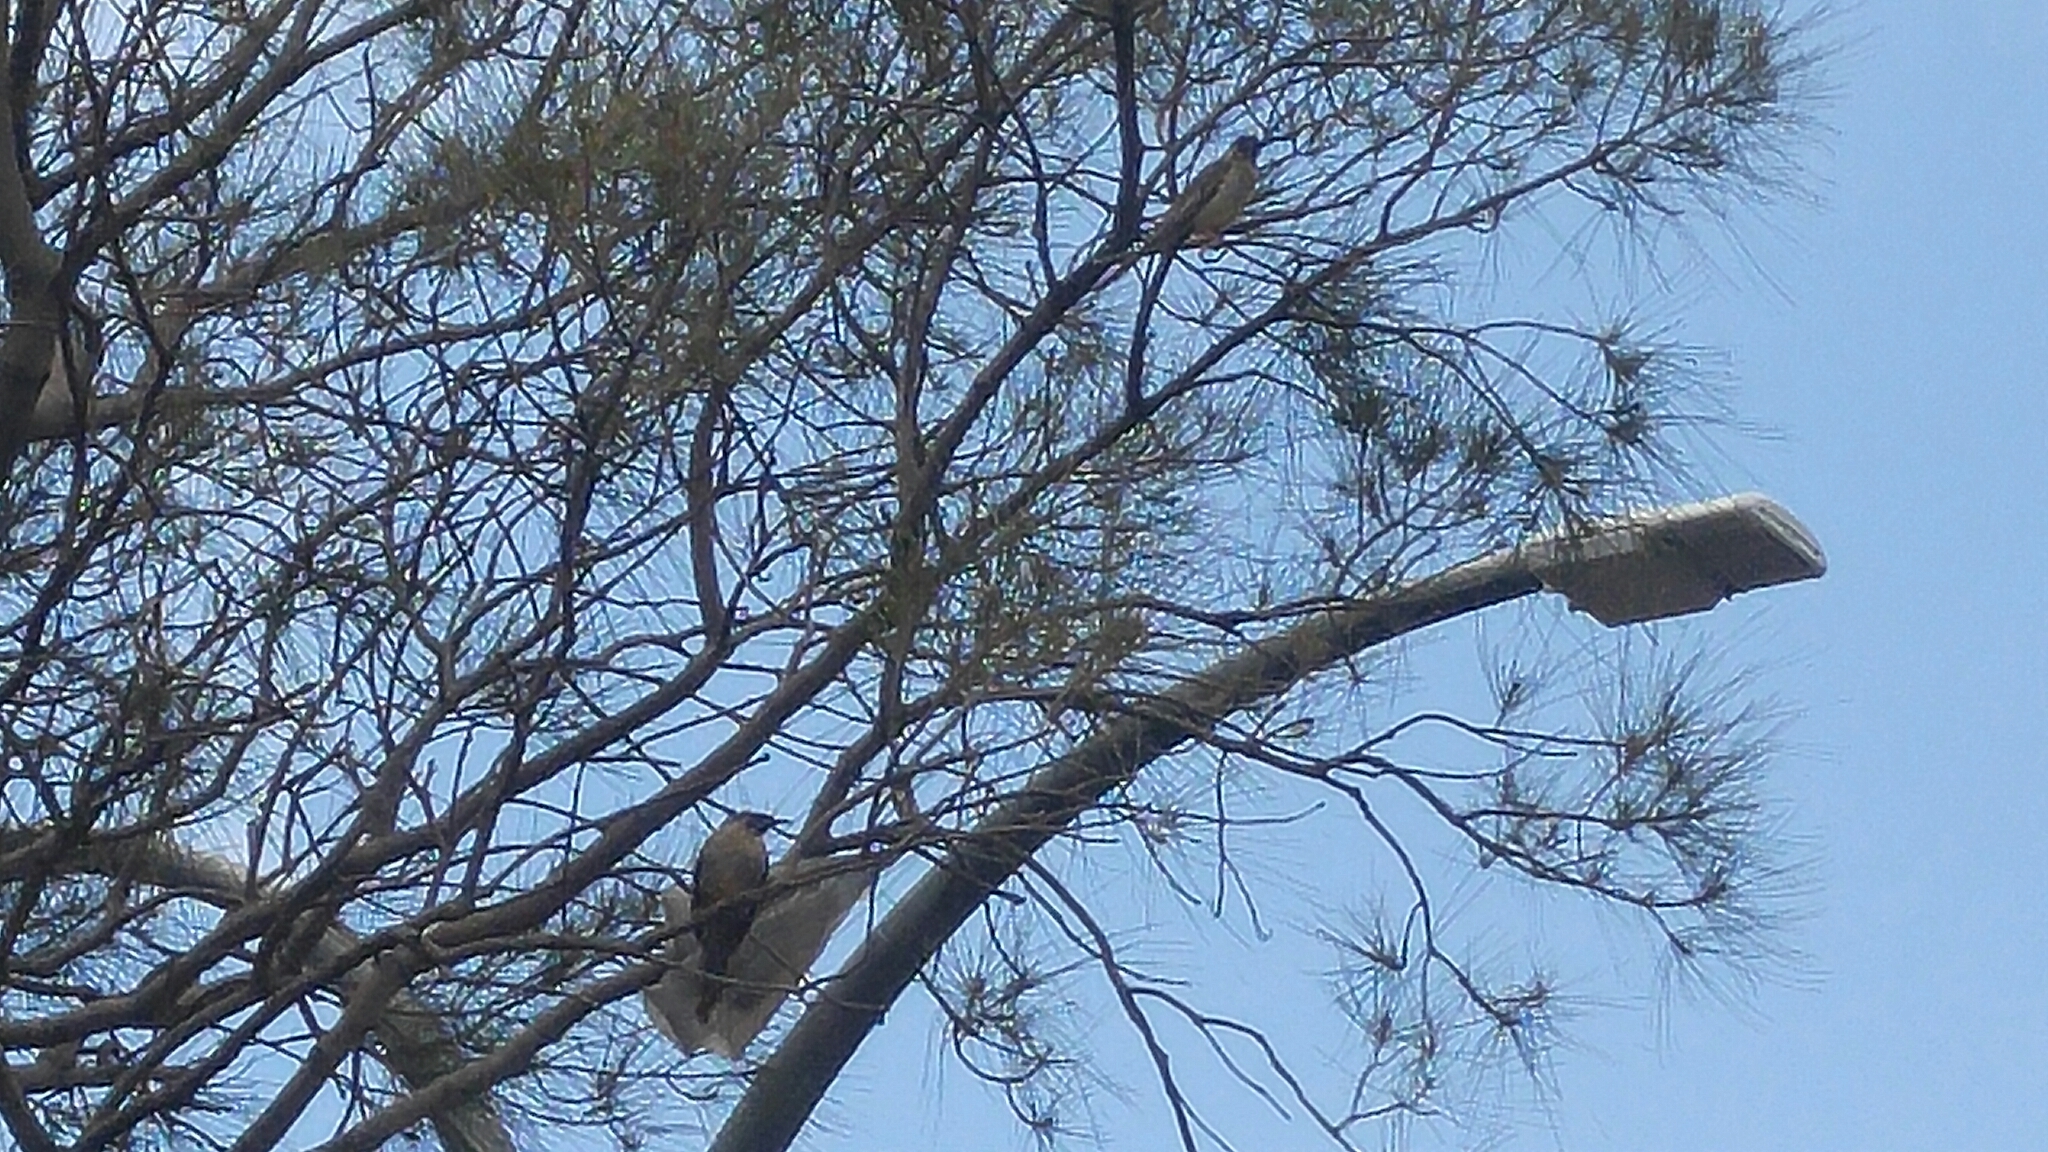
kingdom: Animalia
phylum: Chordata
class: Aves
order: Passeriformes
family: Meliphagidae
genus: Anthochaera
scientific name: Anthochaera carunculata
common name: Red wattlebird
